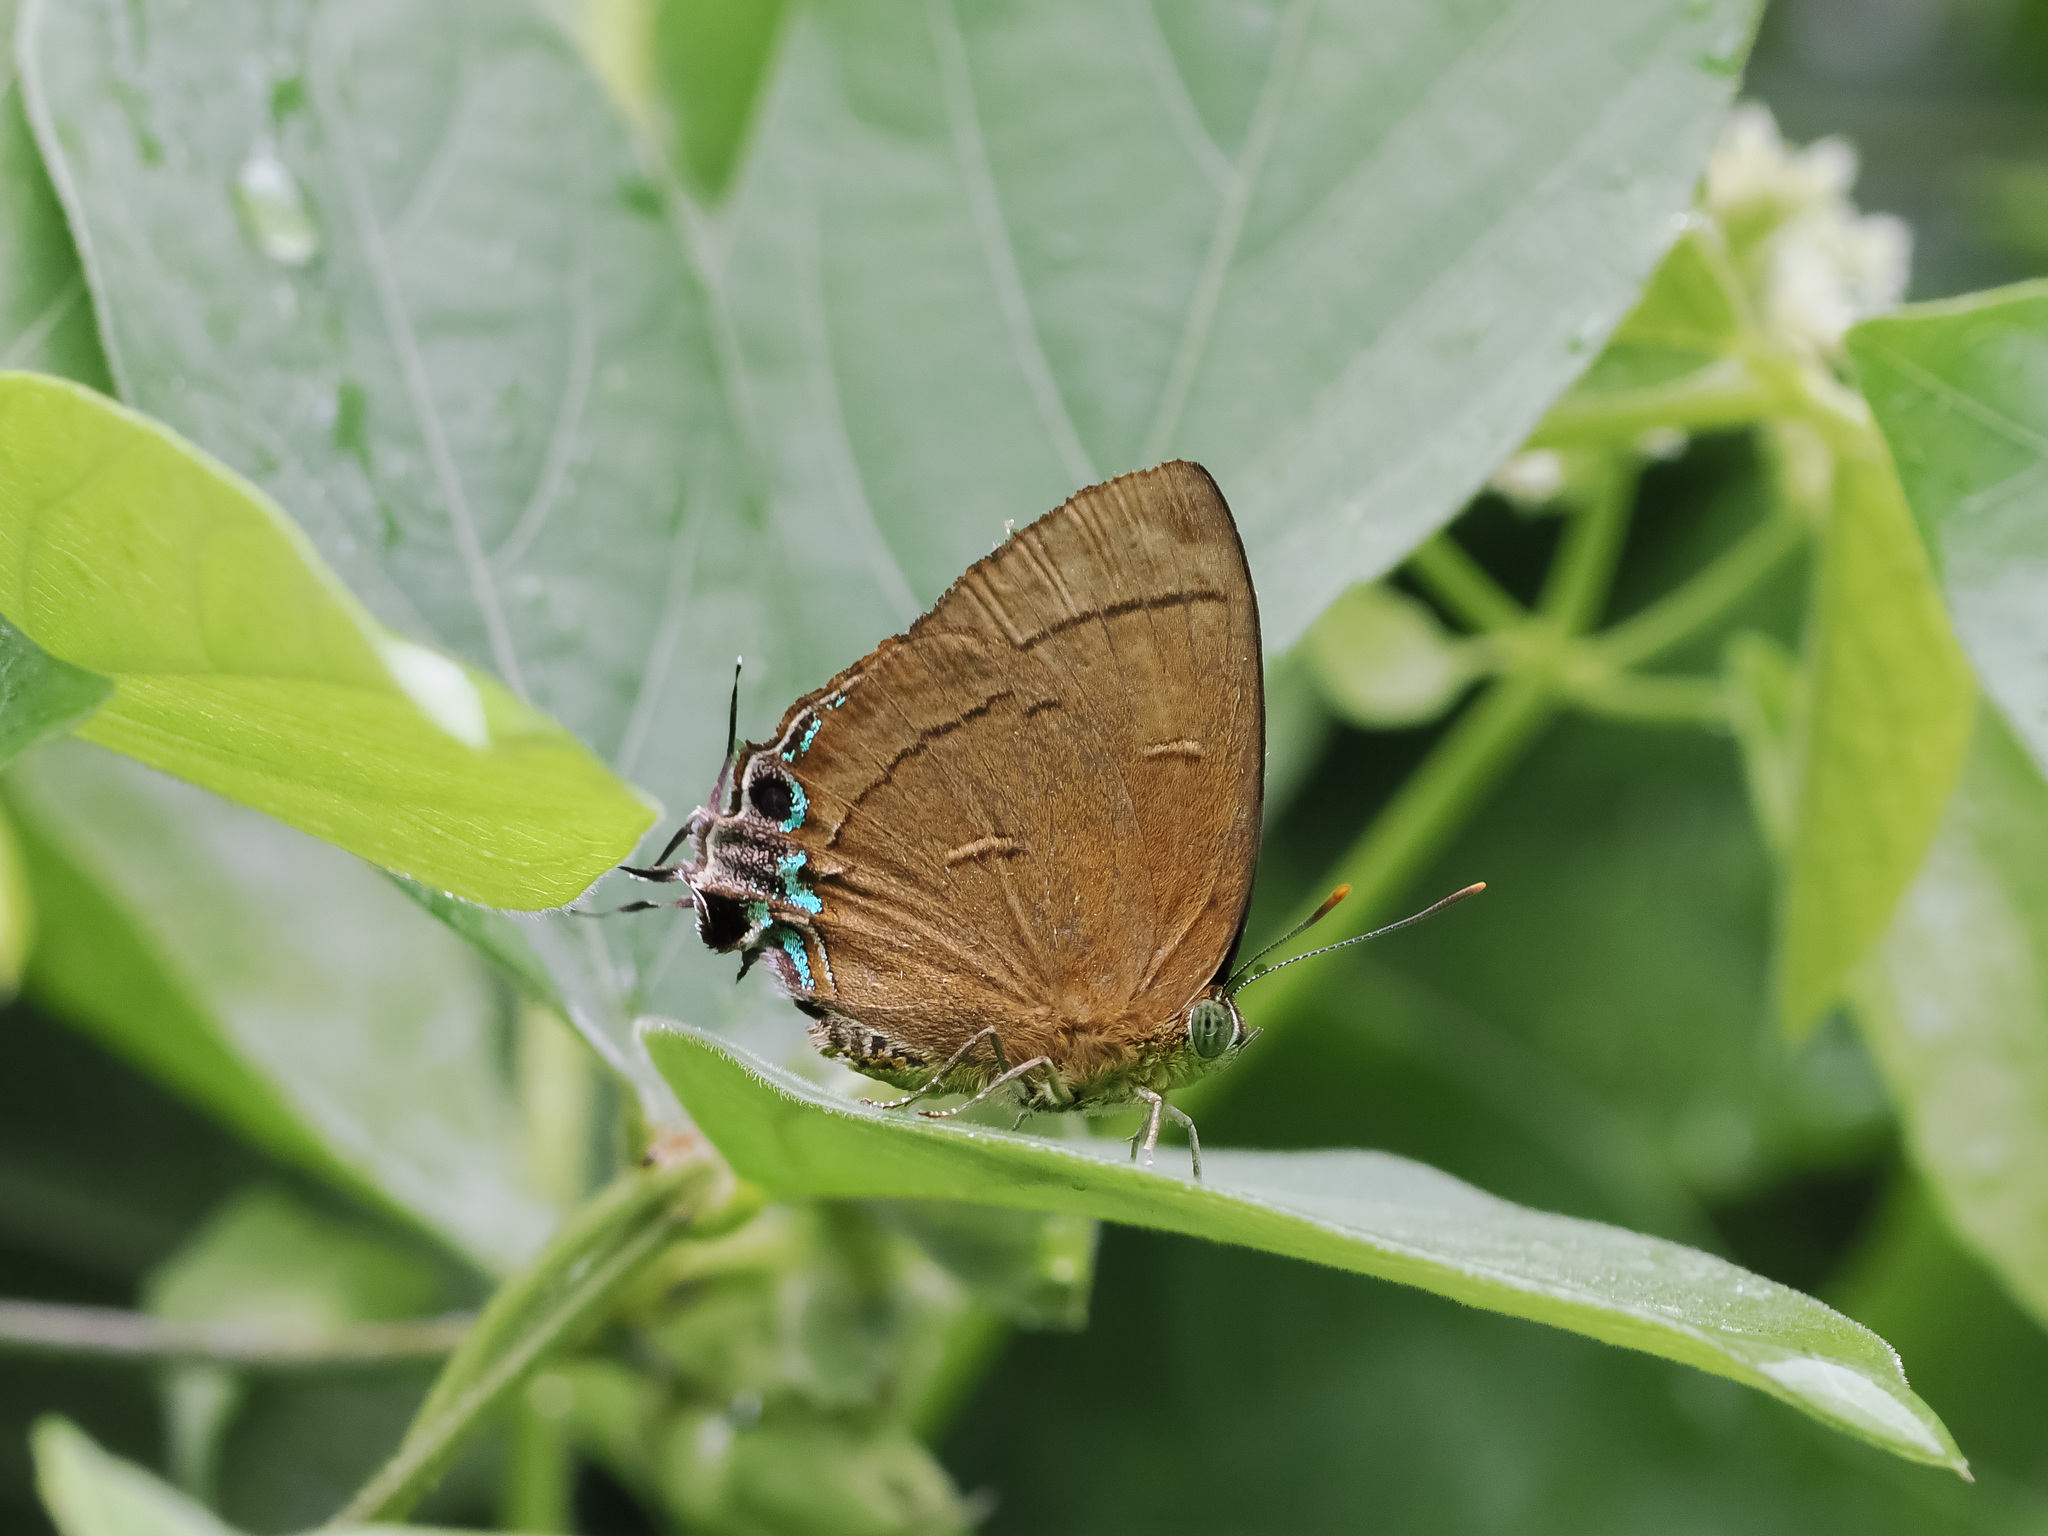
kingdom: Animalia
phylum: Arthropoda
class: Insecta
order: Lepidoptera
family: Lycaenidae
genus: Remelana
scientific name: Remelana jangala
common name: Chocolate royal
